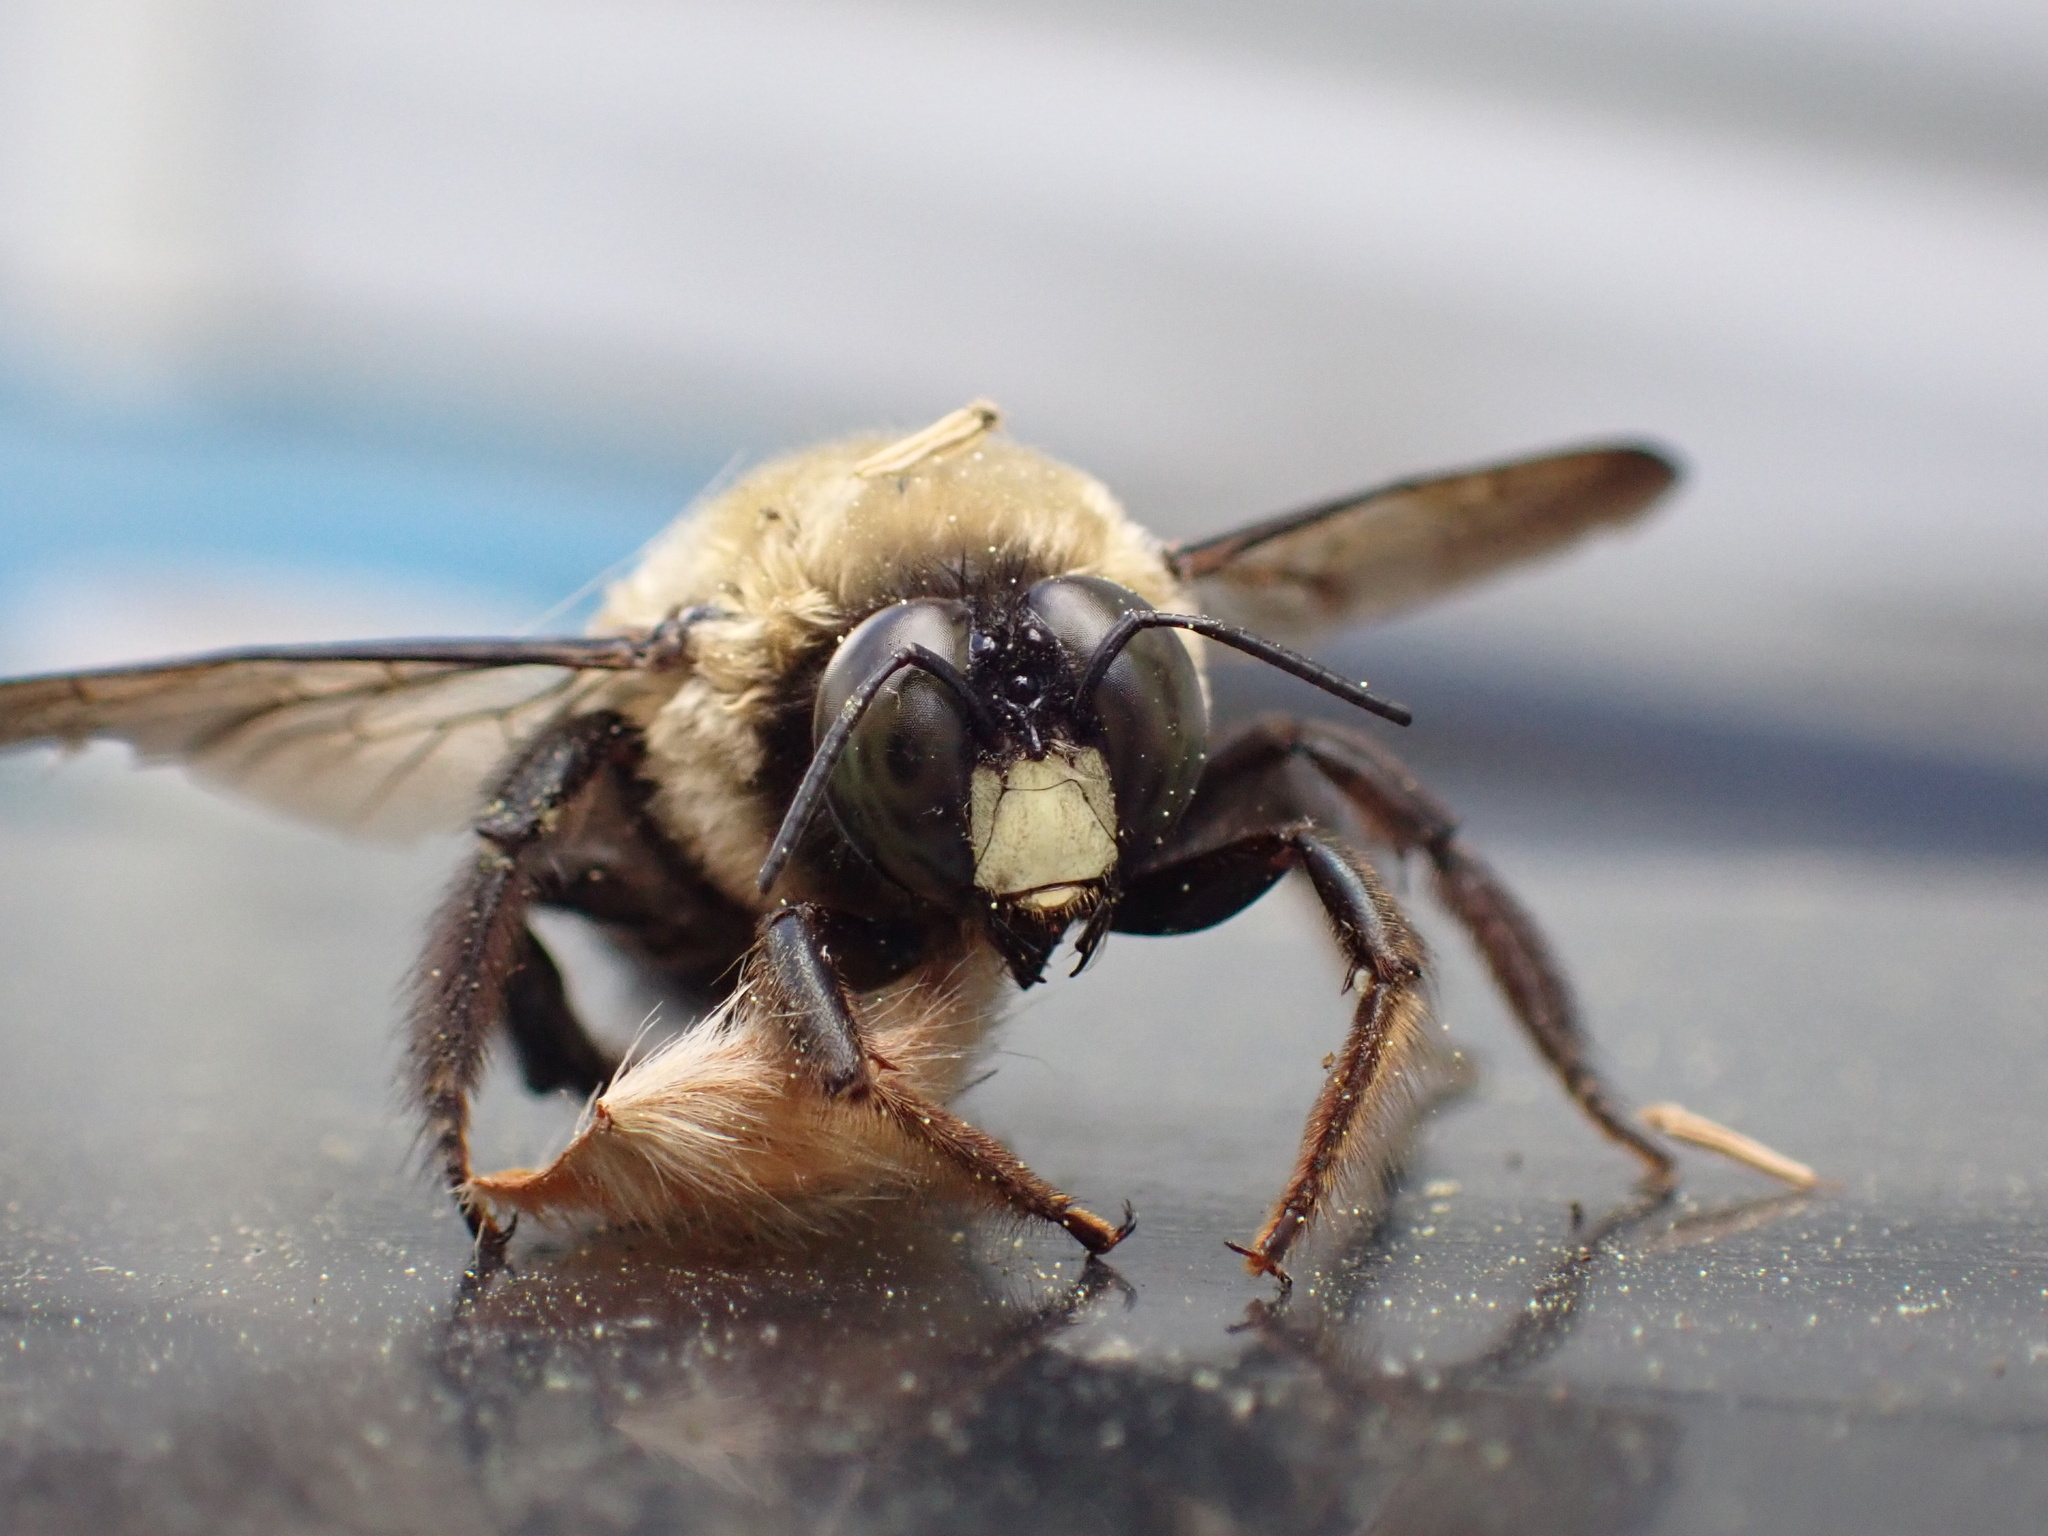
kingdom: Animalia
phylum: Arthropoda
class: Insecta
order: Hymenoptera
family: Apidae
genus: Xylocopa
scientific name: Xylocopa virginica
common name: Carpenter bee
